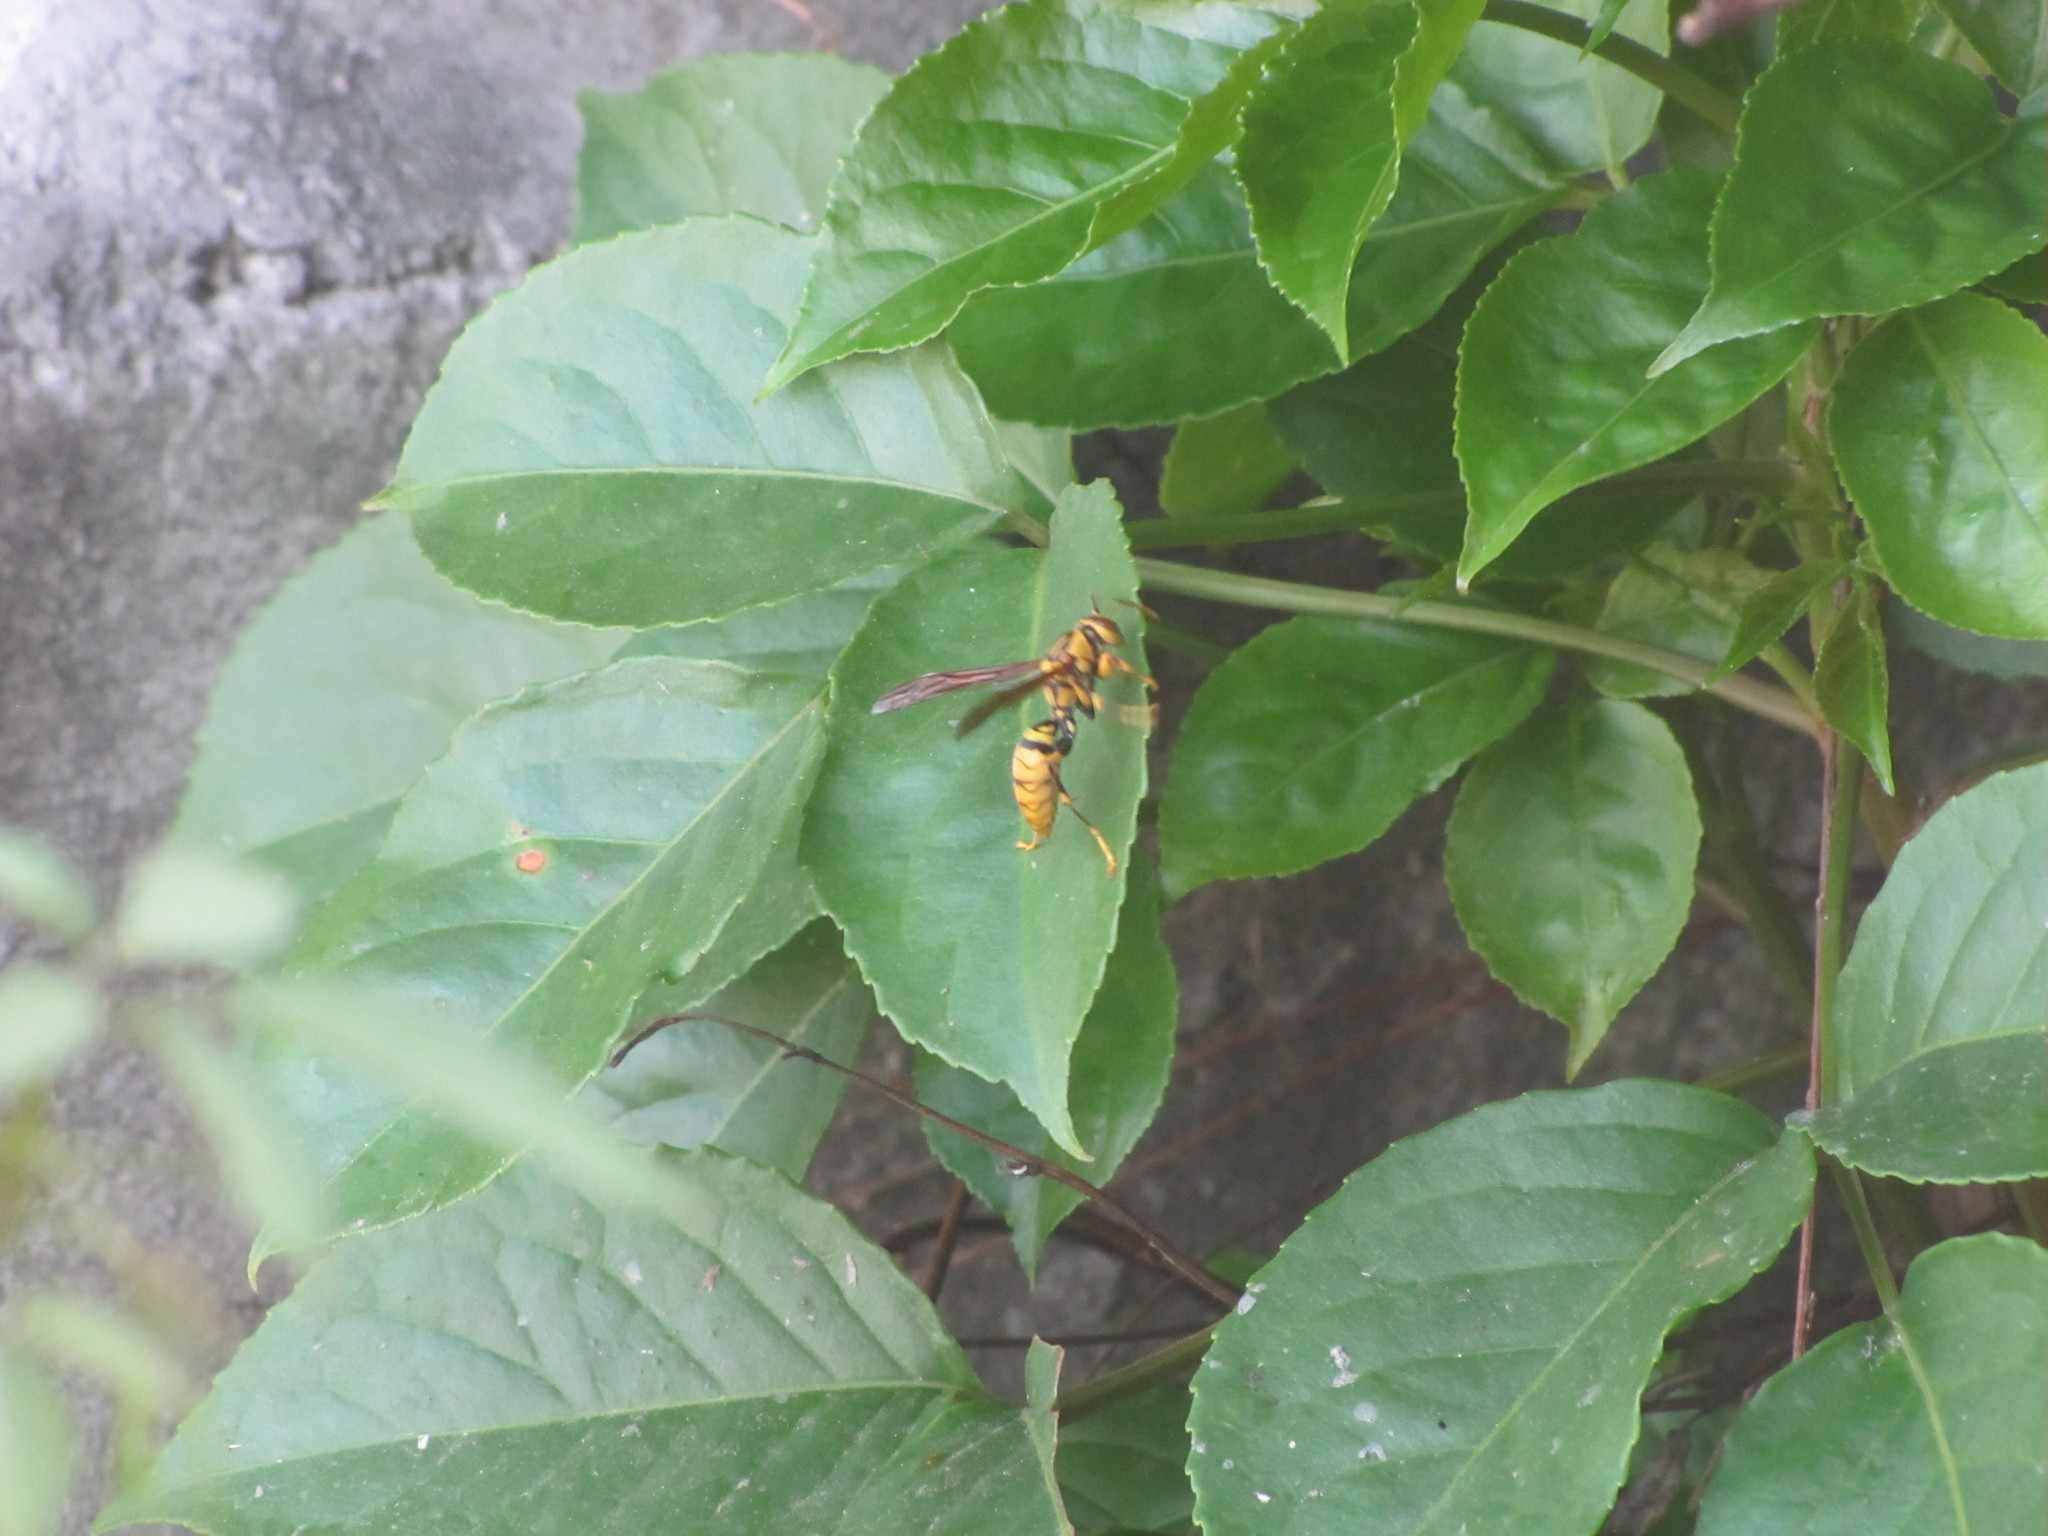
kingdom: Animalia
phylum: Arthropoda
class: Insecta
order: Hymenoptera
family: Eumenidae
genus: Polistes
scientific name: Polistes rothneyi
